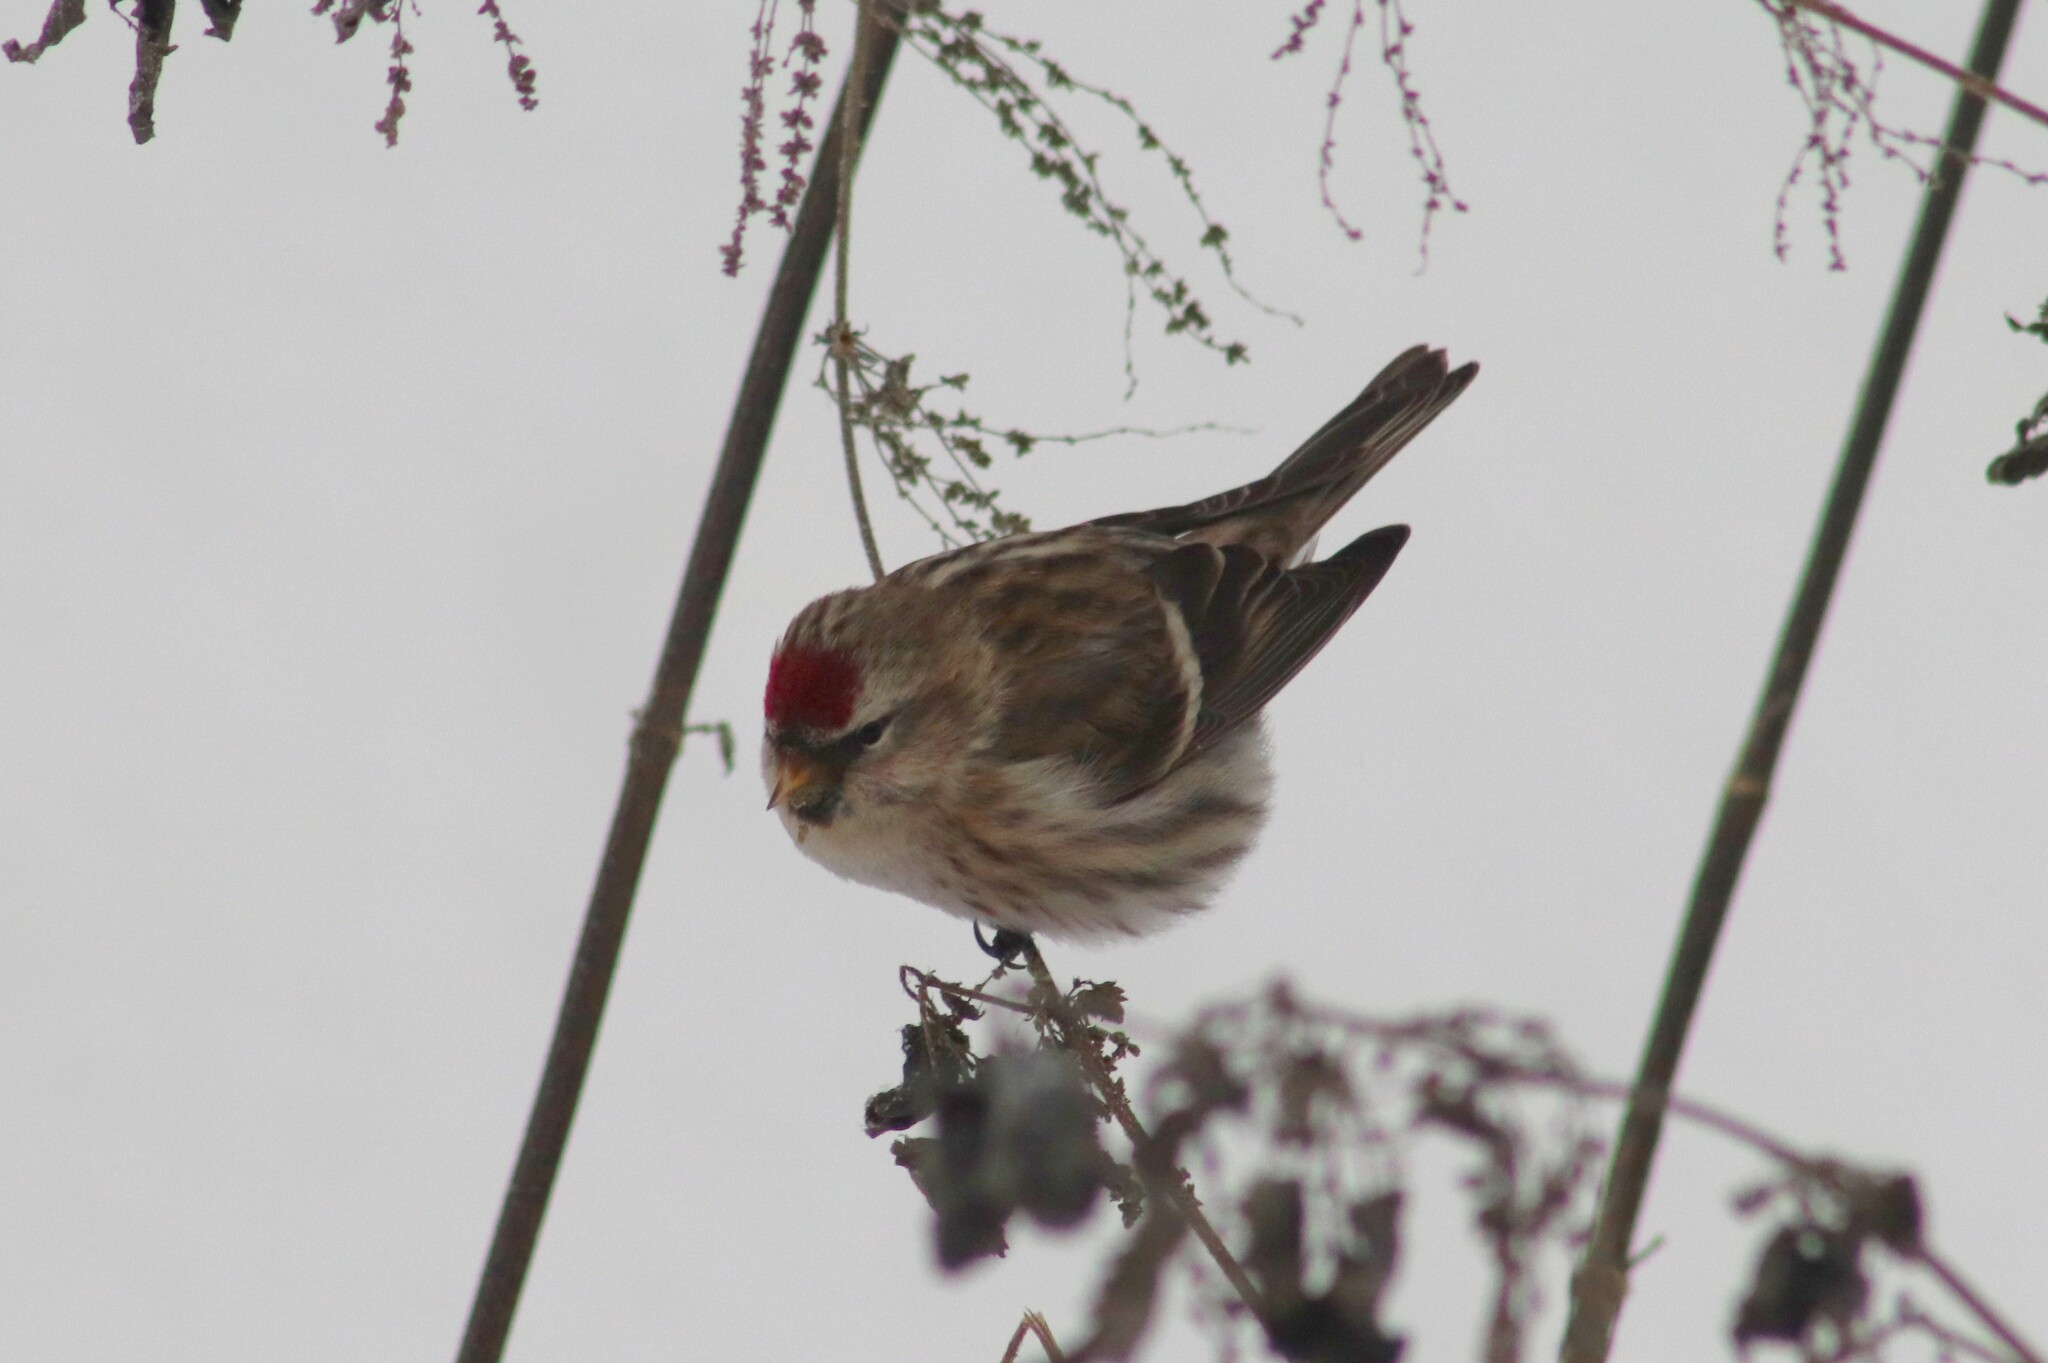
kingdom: Animalia
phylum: Chordata
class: Aves
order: Passeriformes
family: Fringillidae
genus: Acanthis
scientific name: Acanthis flammea
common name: Common redpoll
